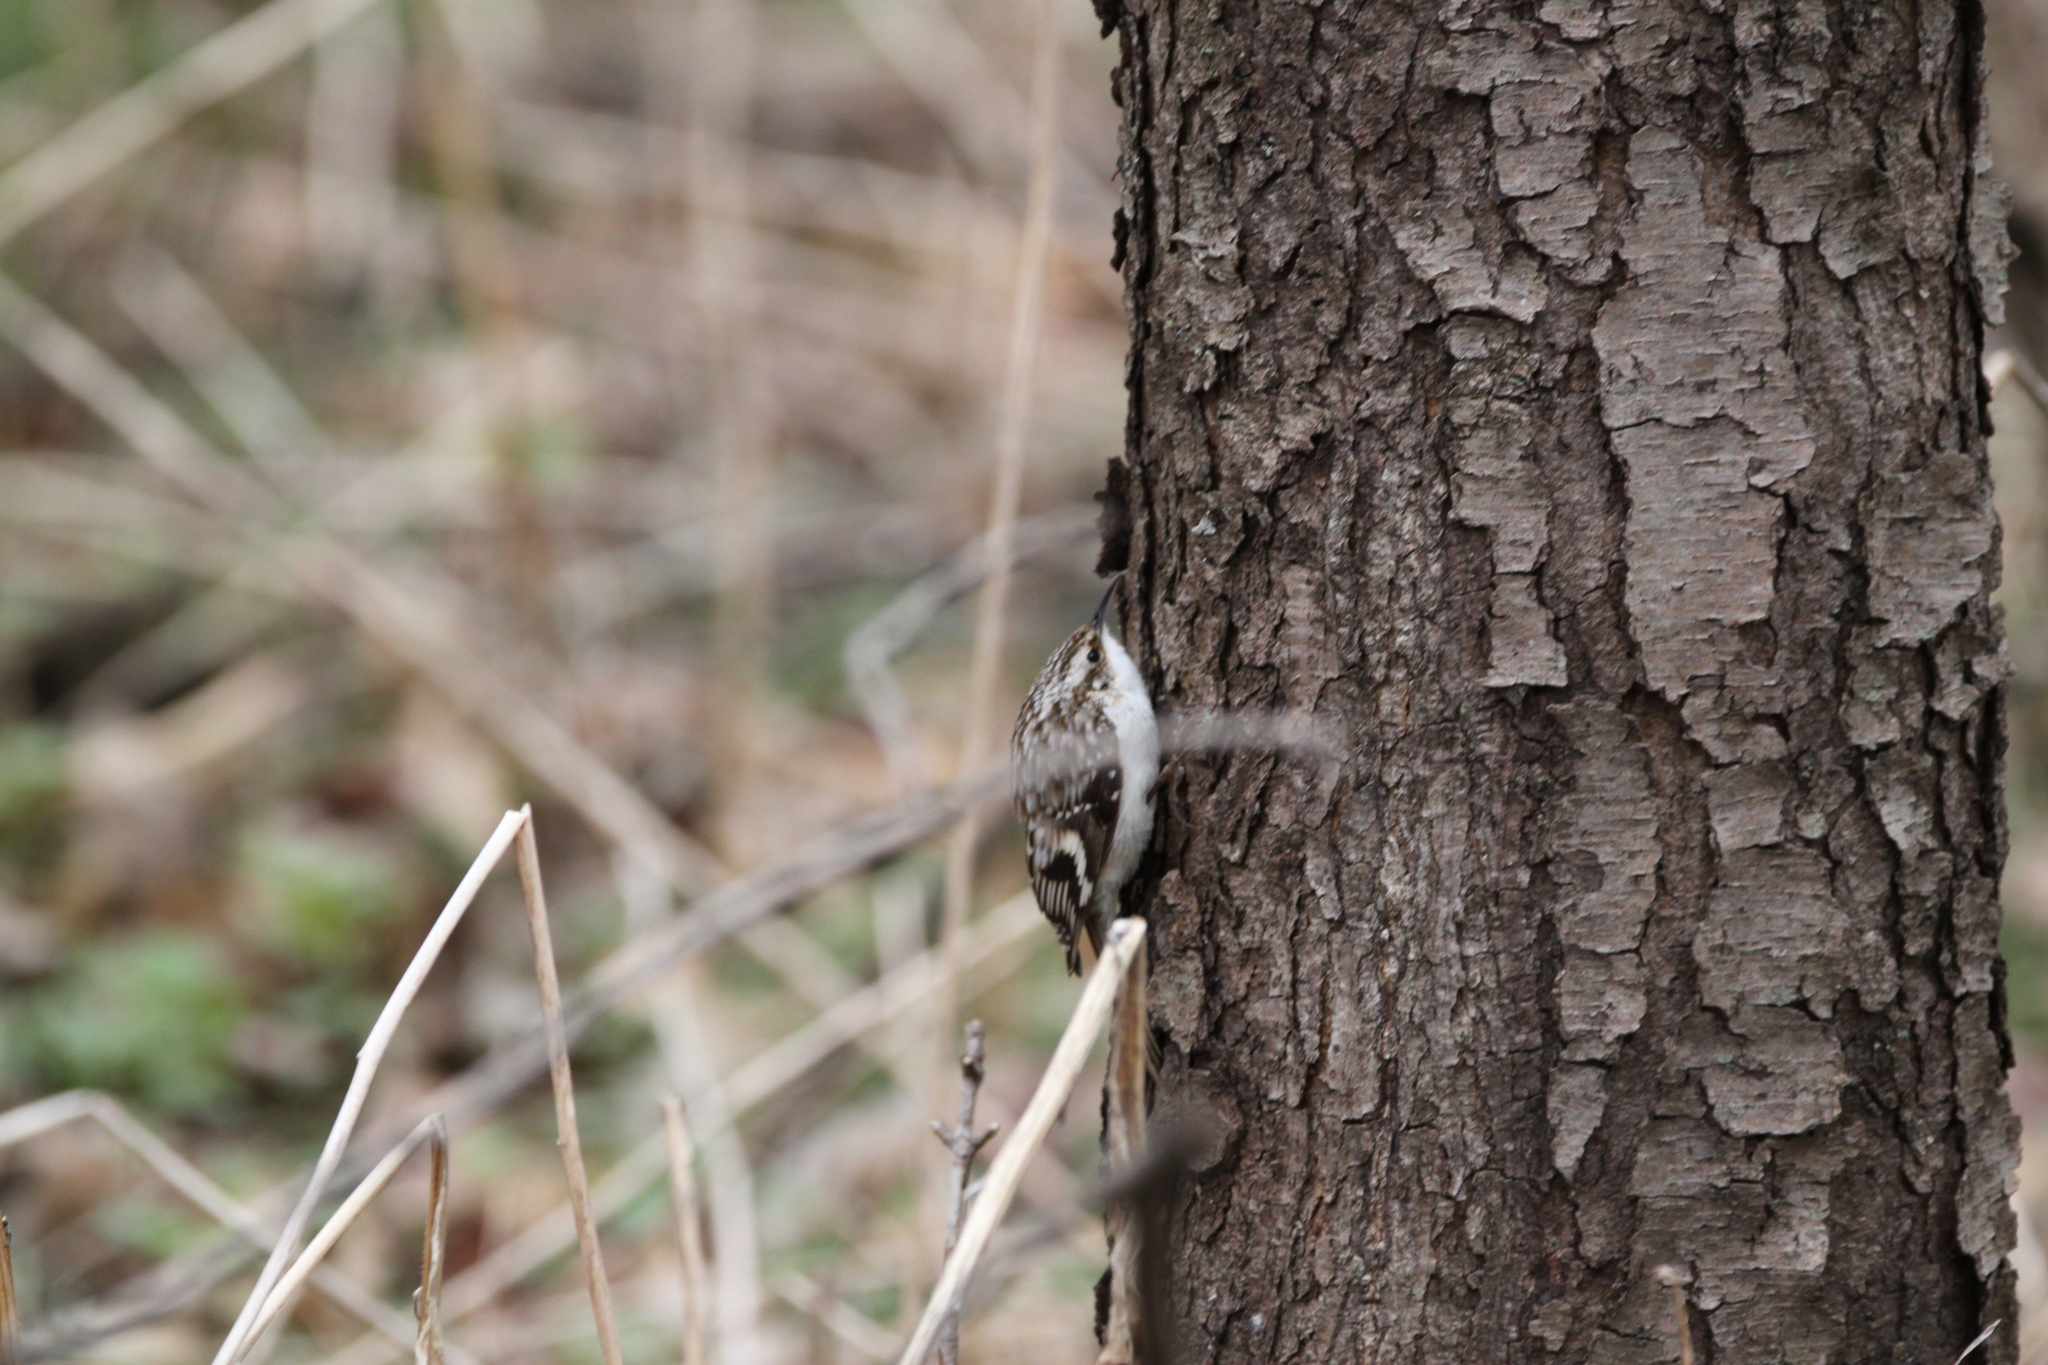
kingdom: Animalia
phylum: Chordata
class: Aves
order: Passeriformes
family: Certhiidae
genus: Certhia
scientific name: Certhia americana
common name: Brown creeper
